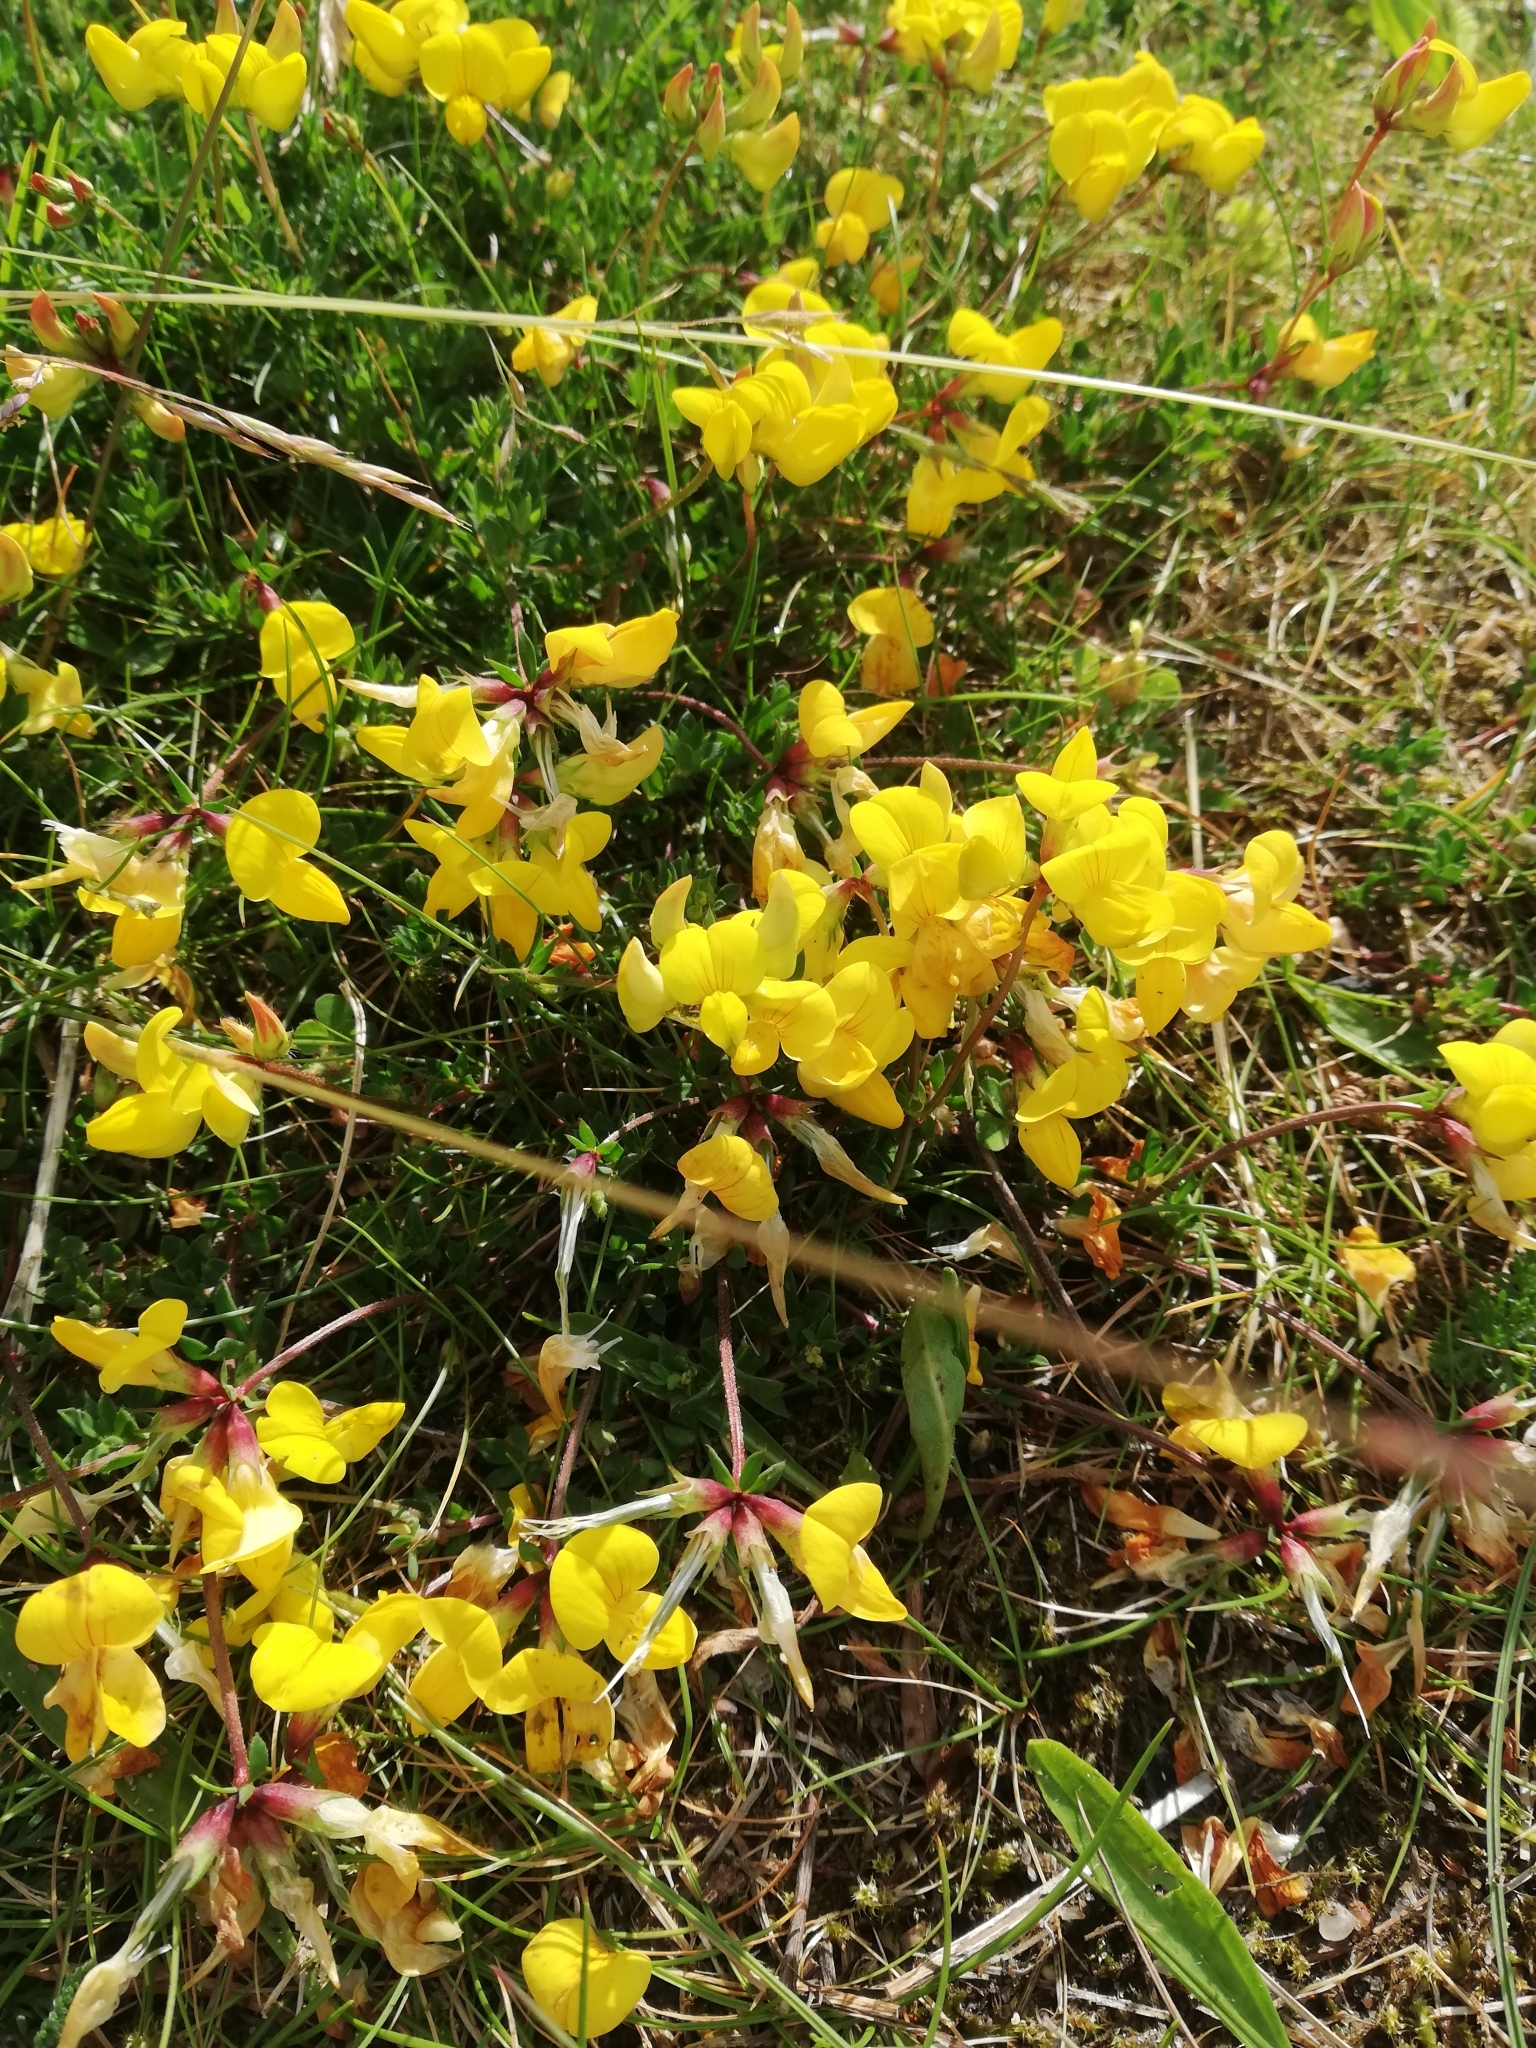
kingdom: Plantae
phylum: Tracheophyta
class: Magnoliopsida
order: Fabales
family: Fabaceae
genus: Lotus
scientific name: Lotus corniculatus
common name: Common bird's-foot-trefoil
